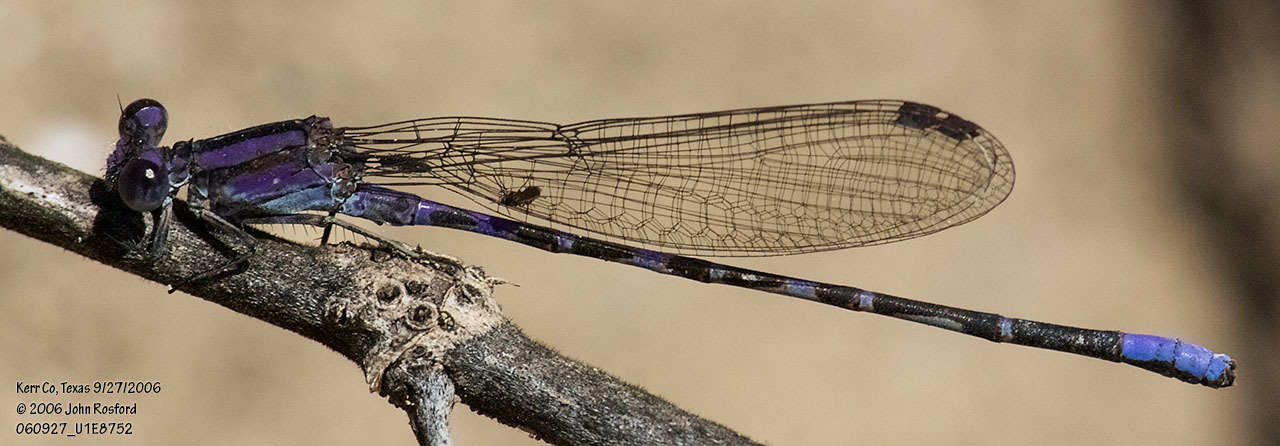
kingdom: Animalia
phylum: Arthropoda
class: Insecta
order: Odonata
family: Coenagrionidae
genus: Argia
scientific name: Argia immunda
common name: Kiowa dancer
